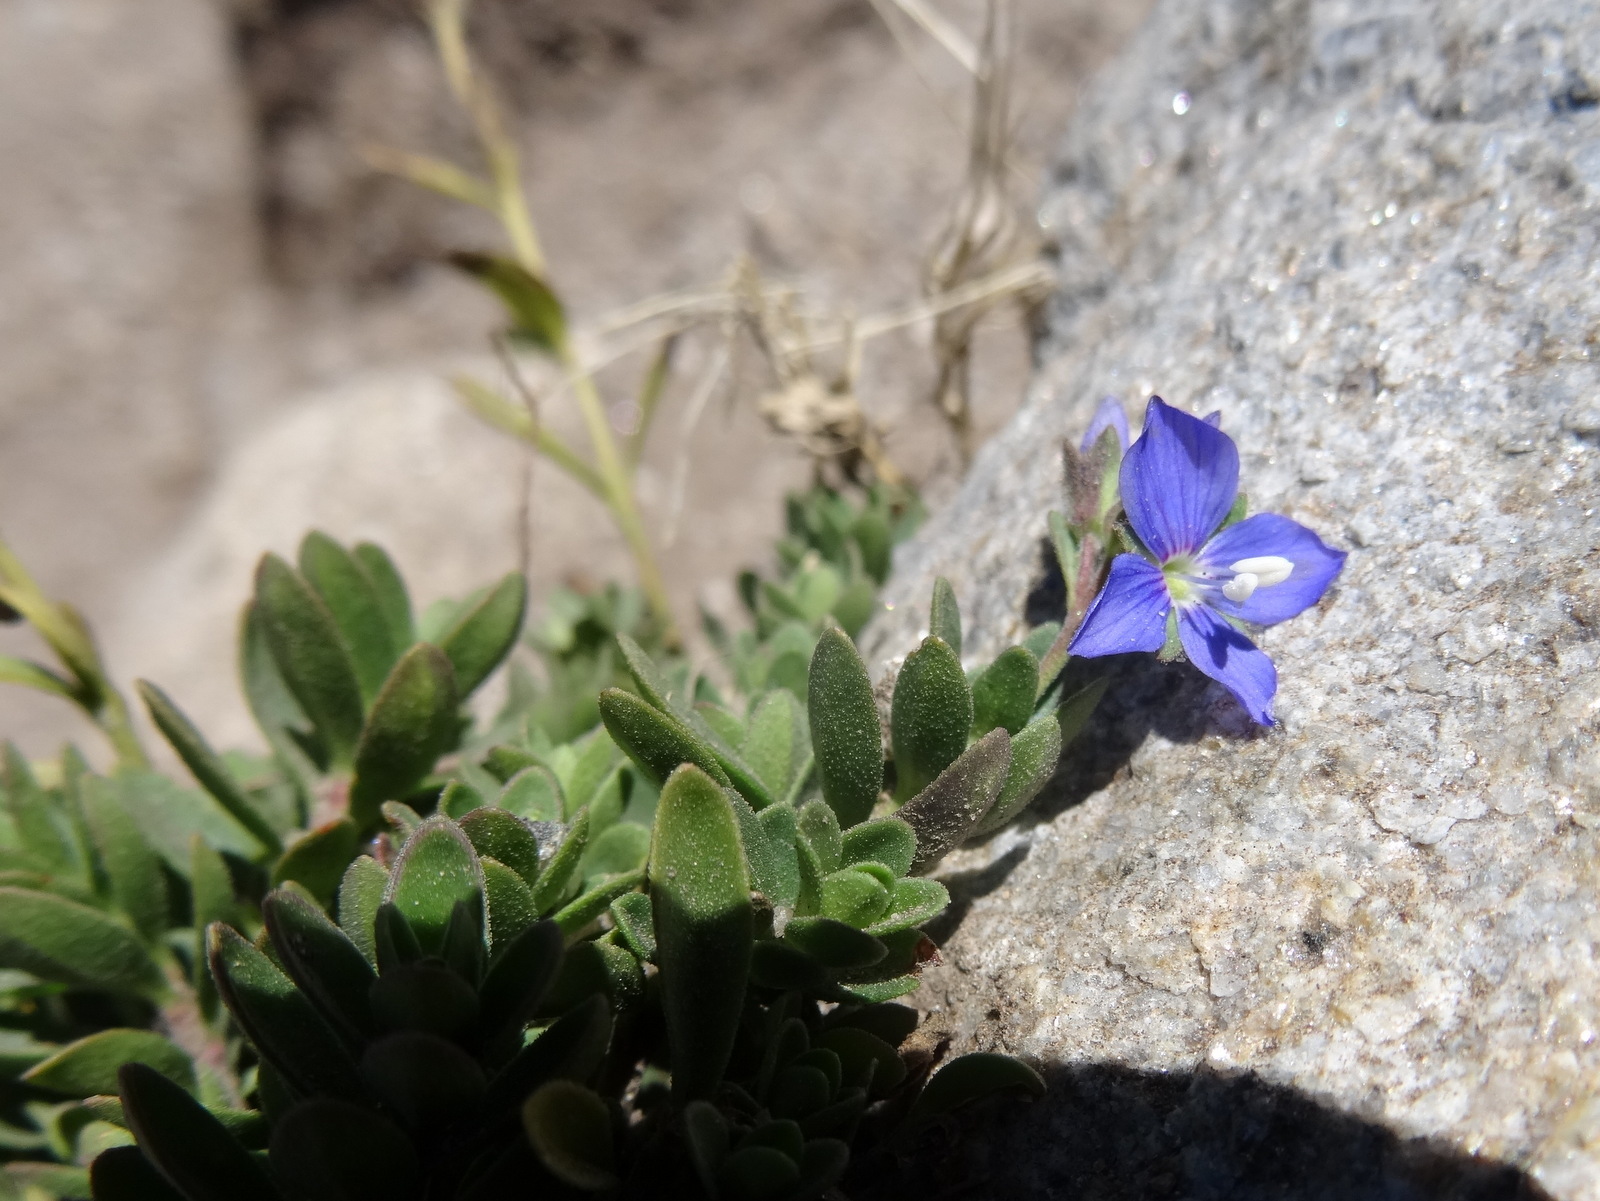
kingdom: Plantae
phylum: Tracheophyta
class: Magnoliopsida
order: Lamiales
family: Plantaginaceae
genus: Veronica
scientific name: Veronica fruticans
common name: Rock speedwell
